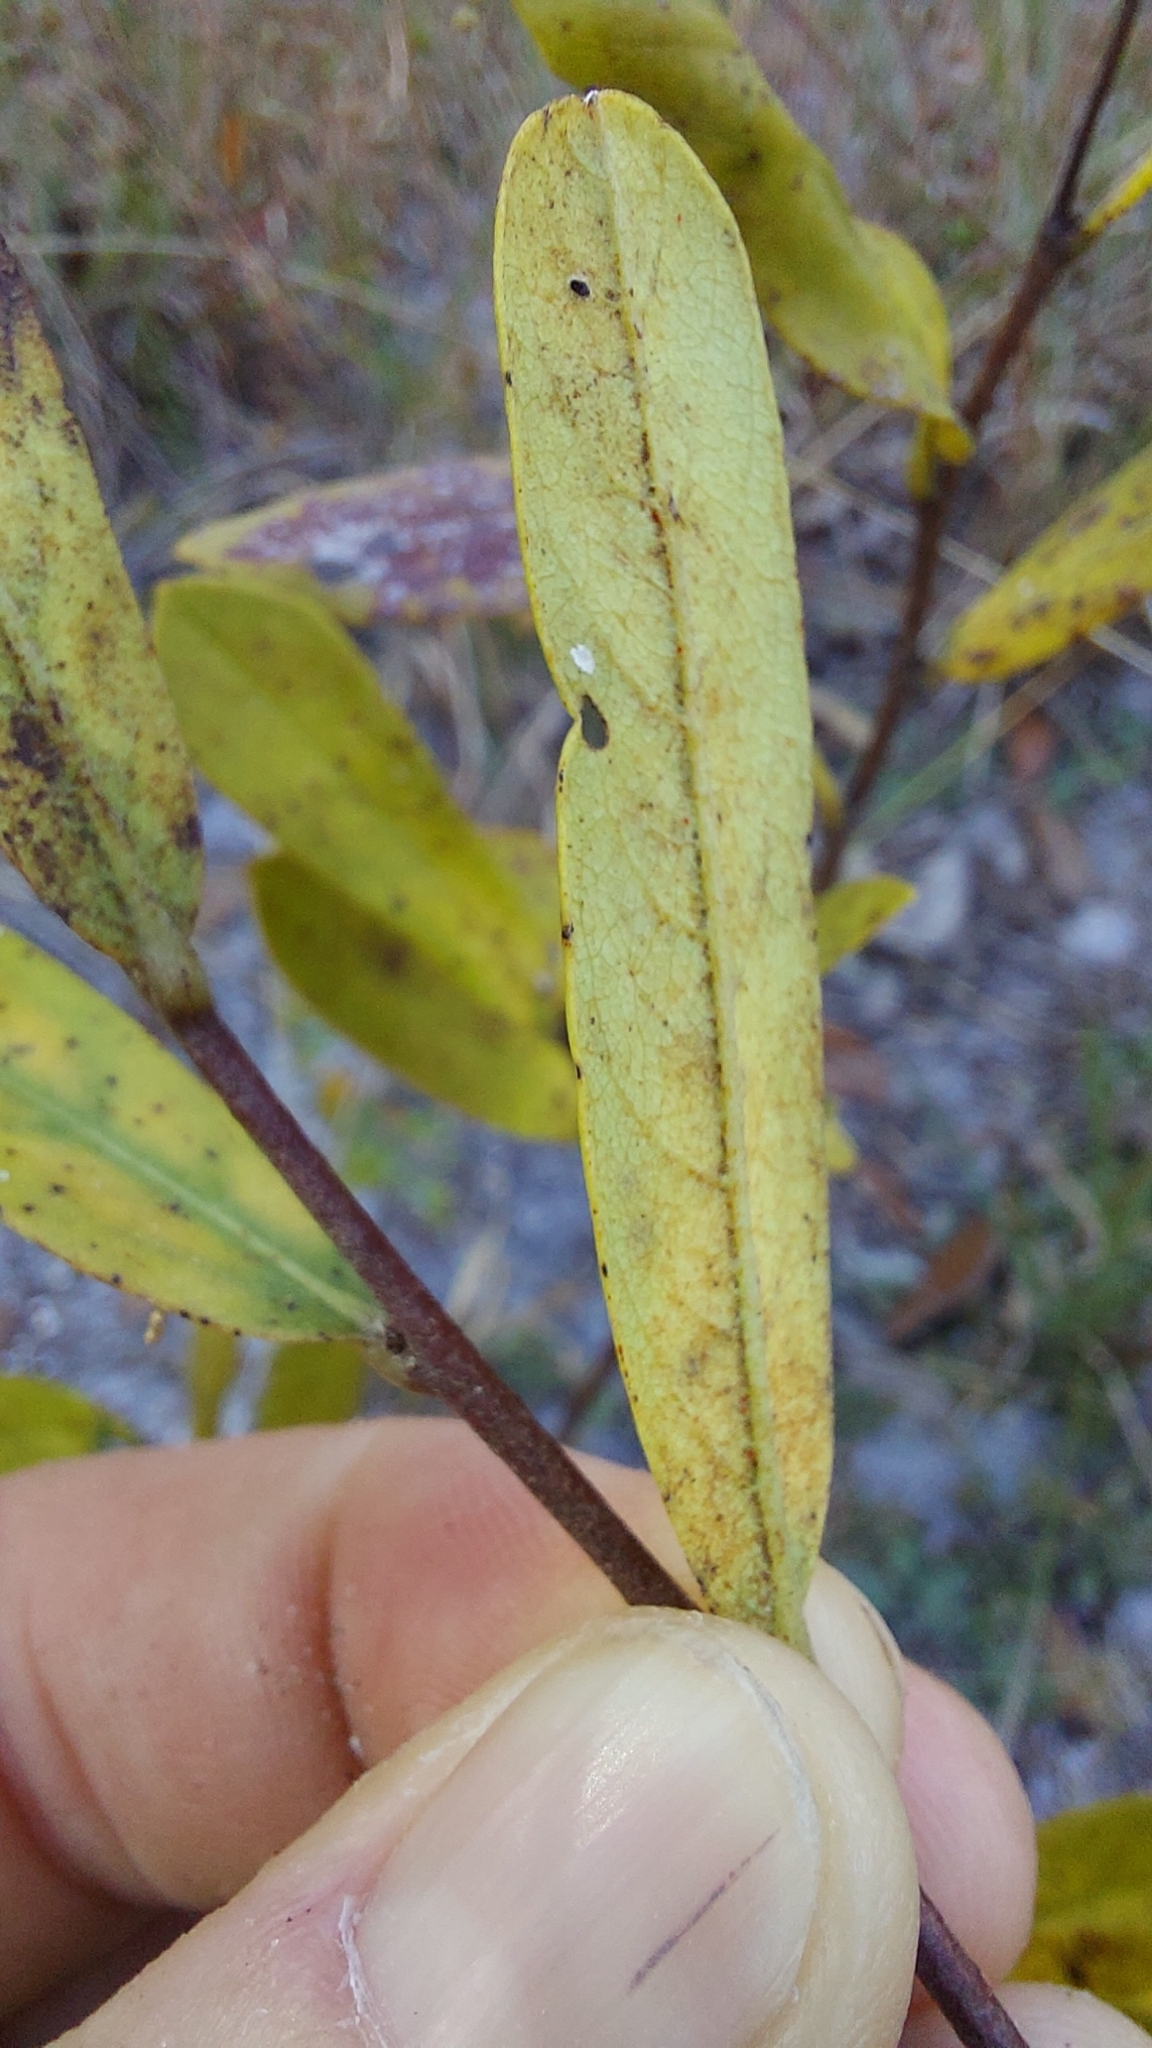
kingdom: Plantae
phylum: Tracheophyta
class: Magnoliopsida
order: Magnoliales
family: Annonaceae
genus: Asimina
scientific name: Asimina reticulata
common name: Flag pawpaw
